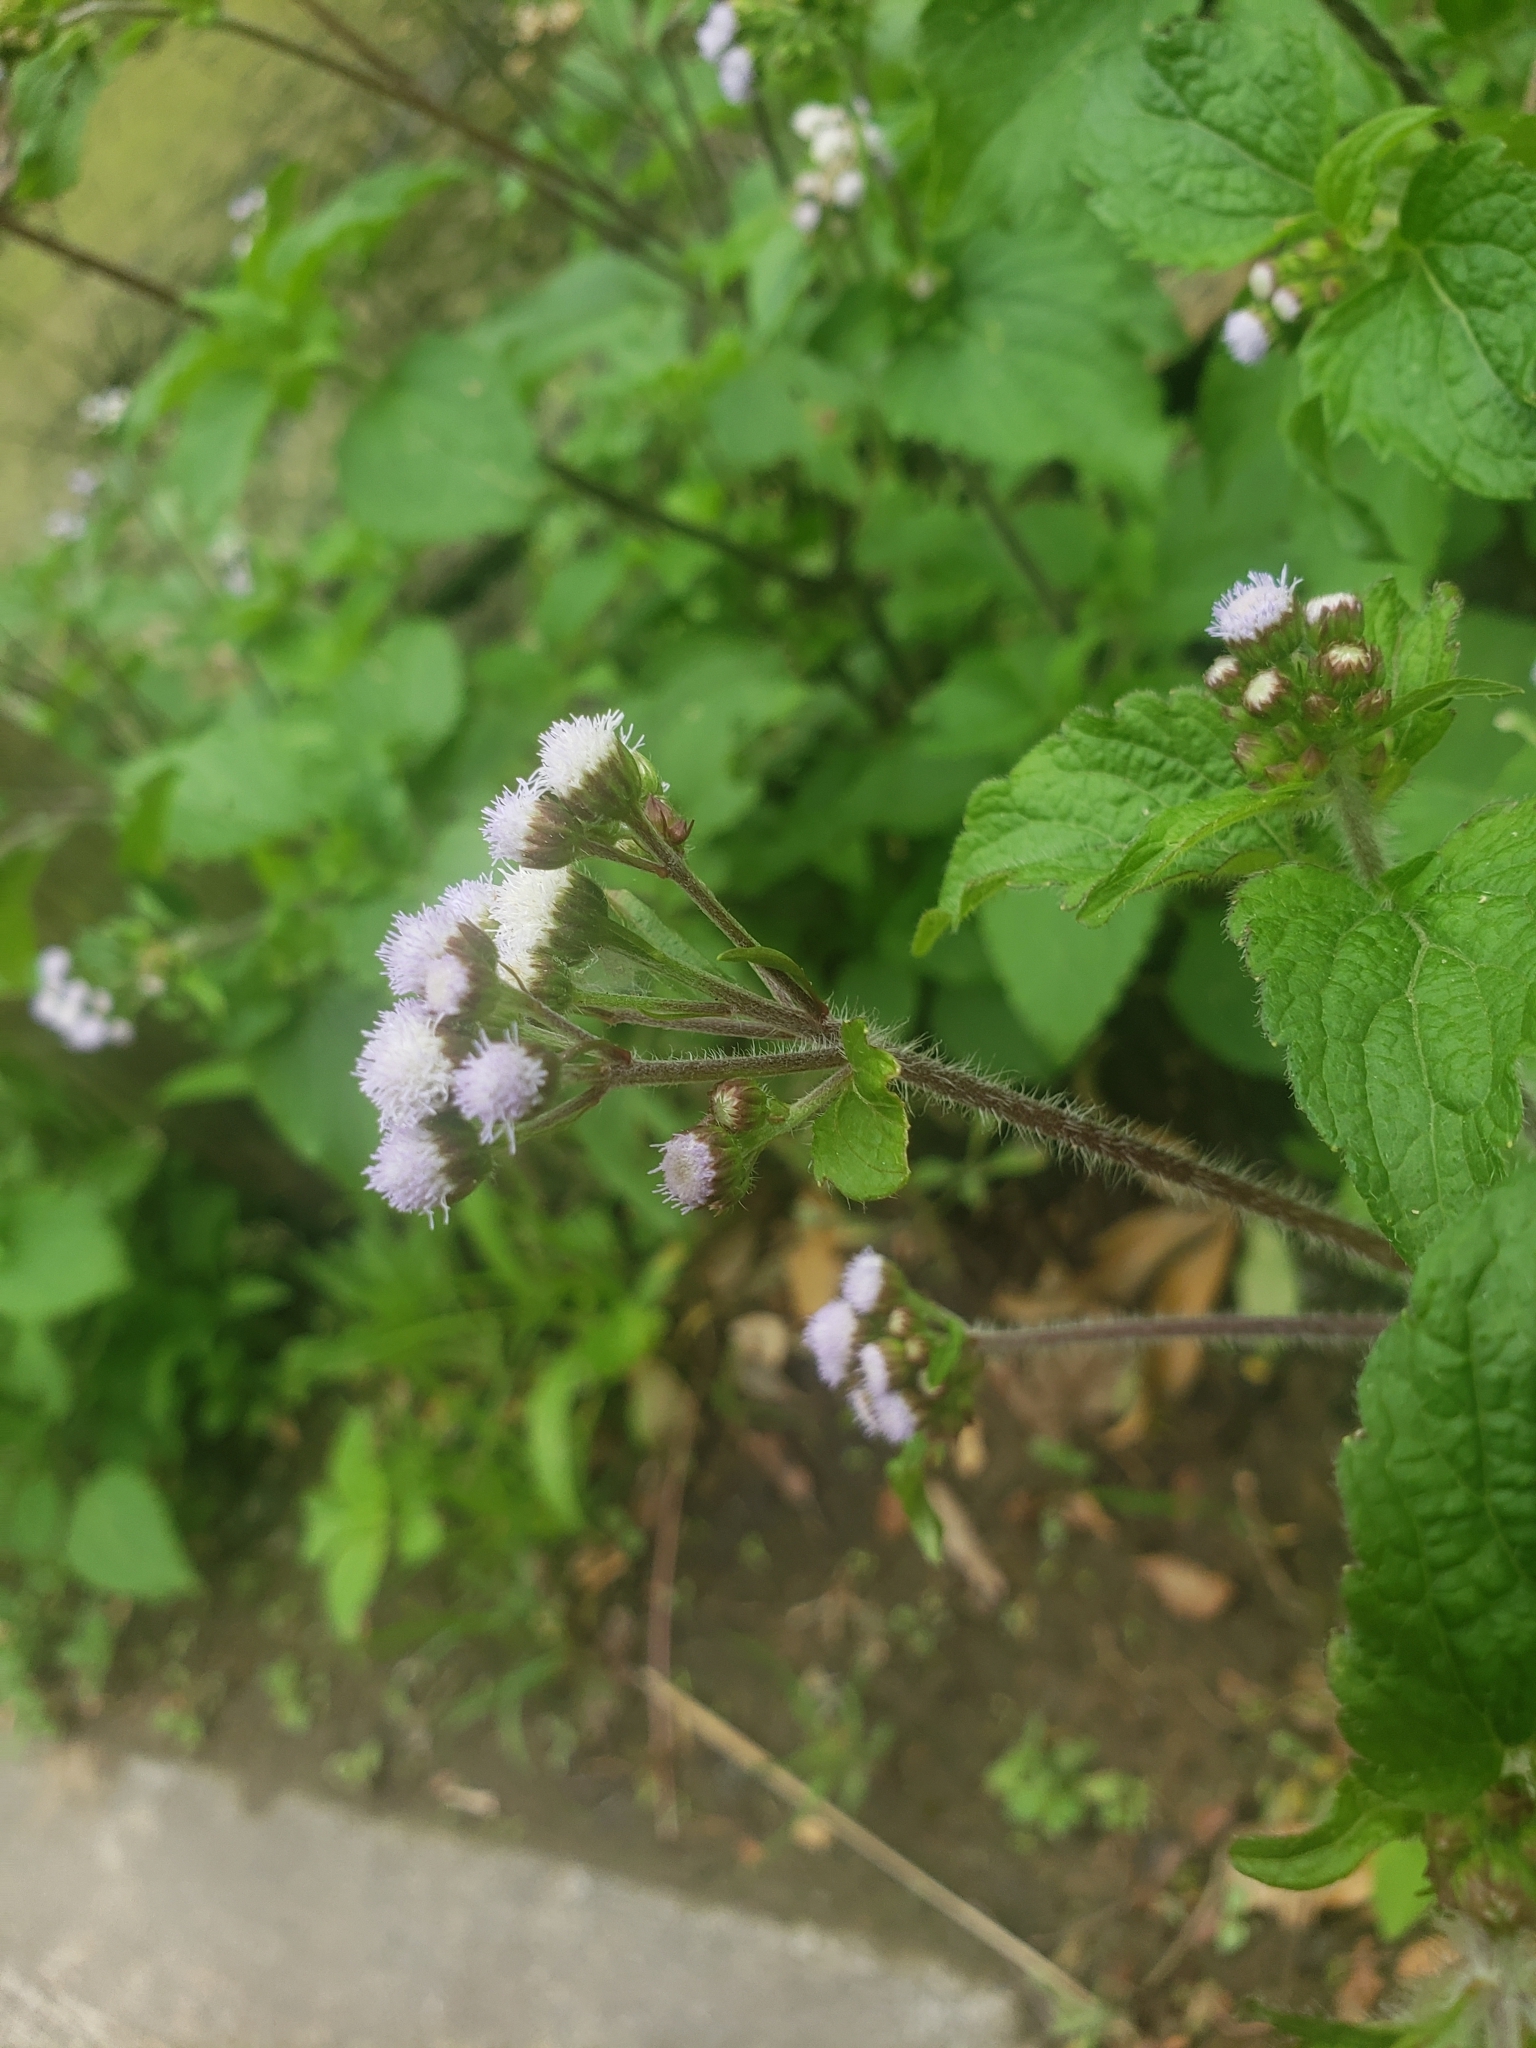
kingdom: Plantae
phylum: Tracheophyta
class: Magnoliopsida
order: Asterales
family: Asteraceae
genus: Ageratum
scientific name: Ageratum conyzoides
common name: Tropical whiteweed
